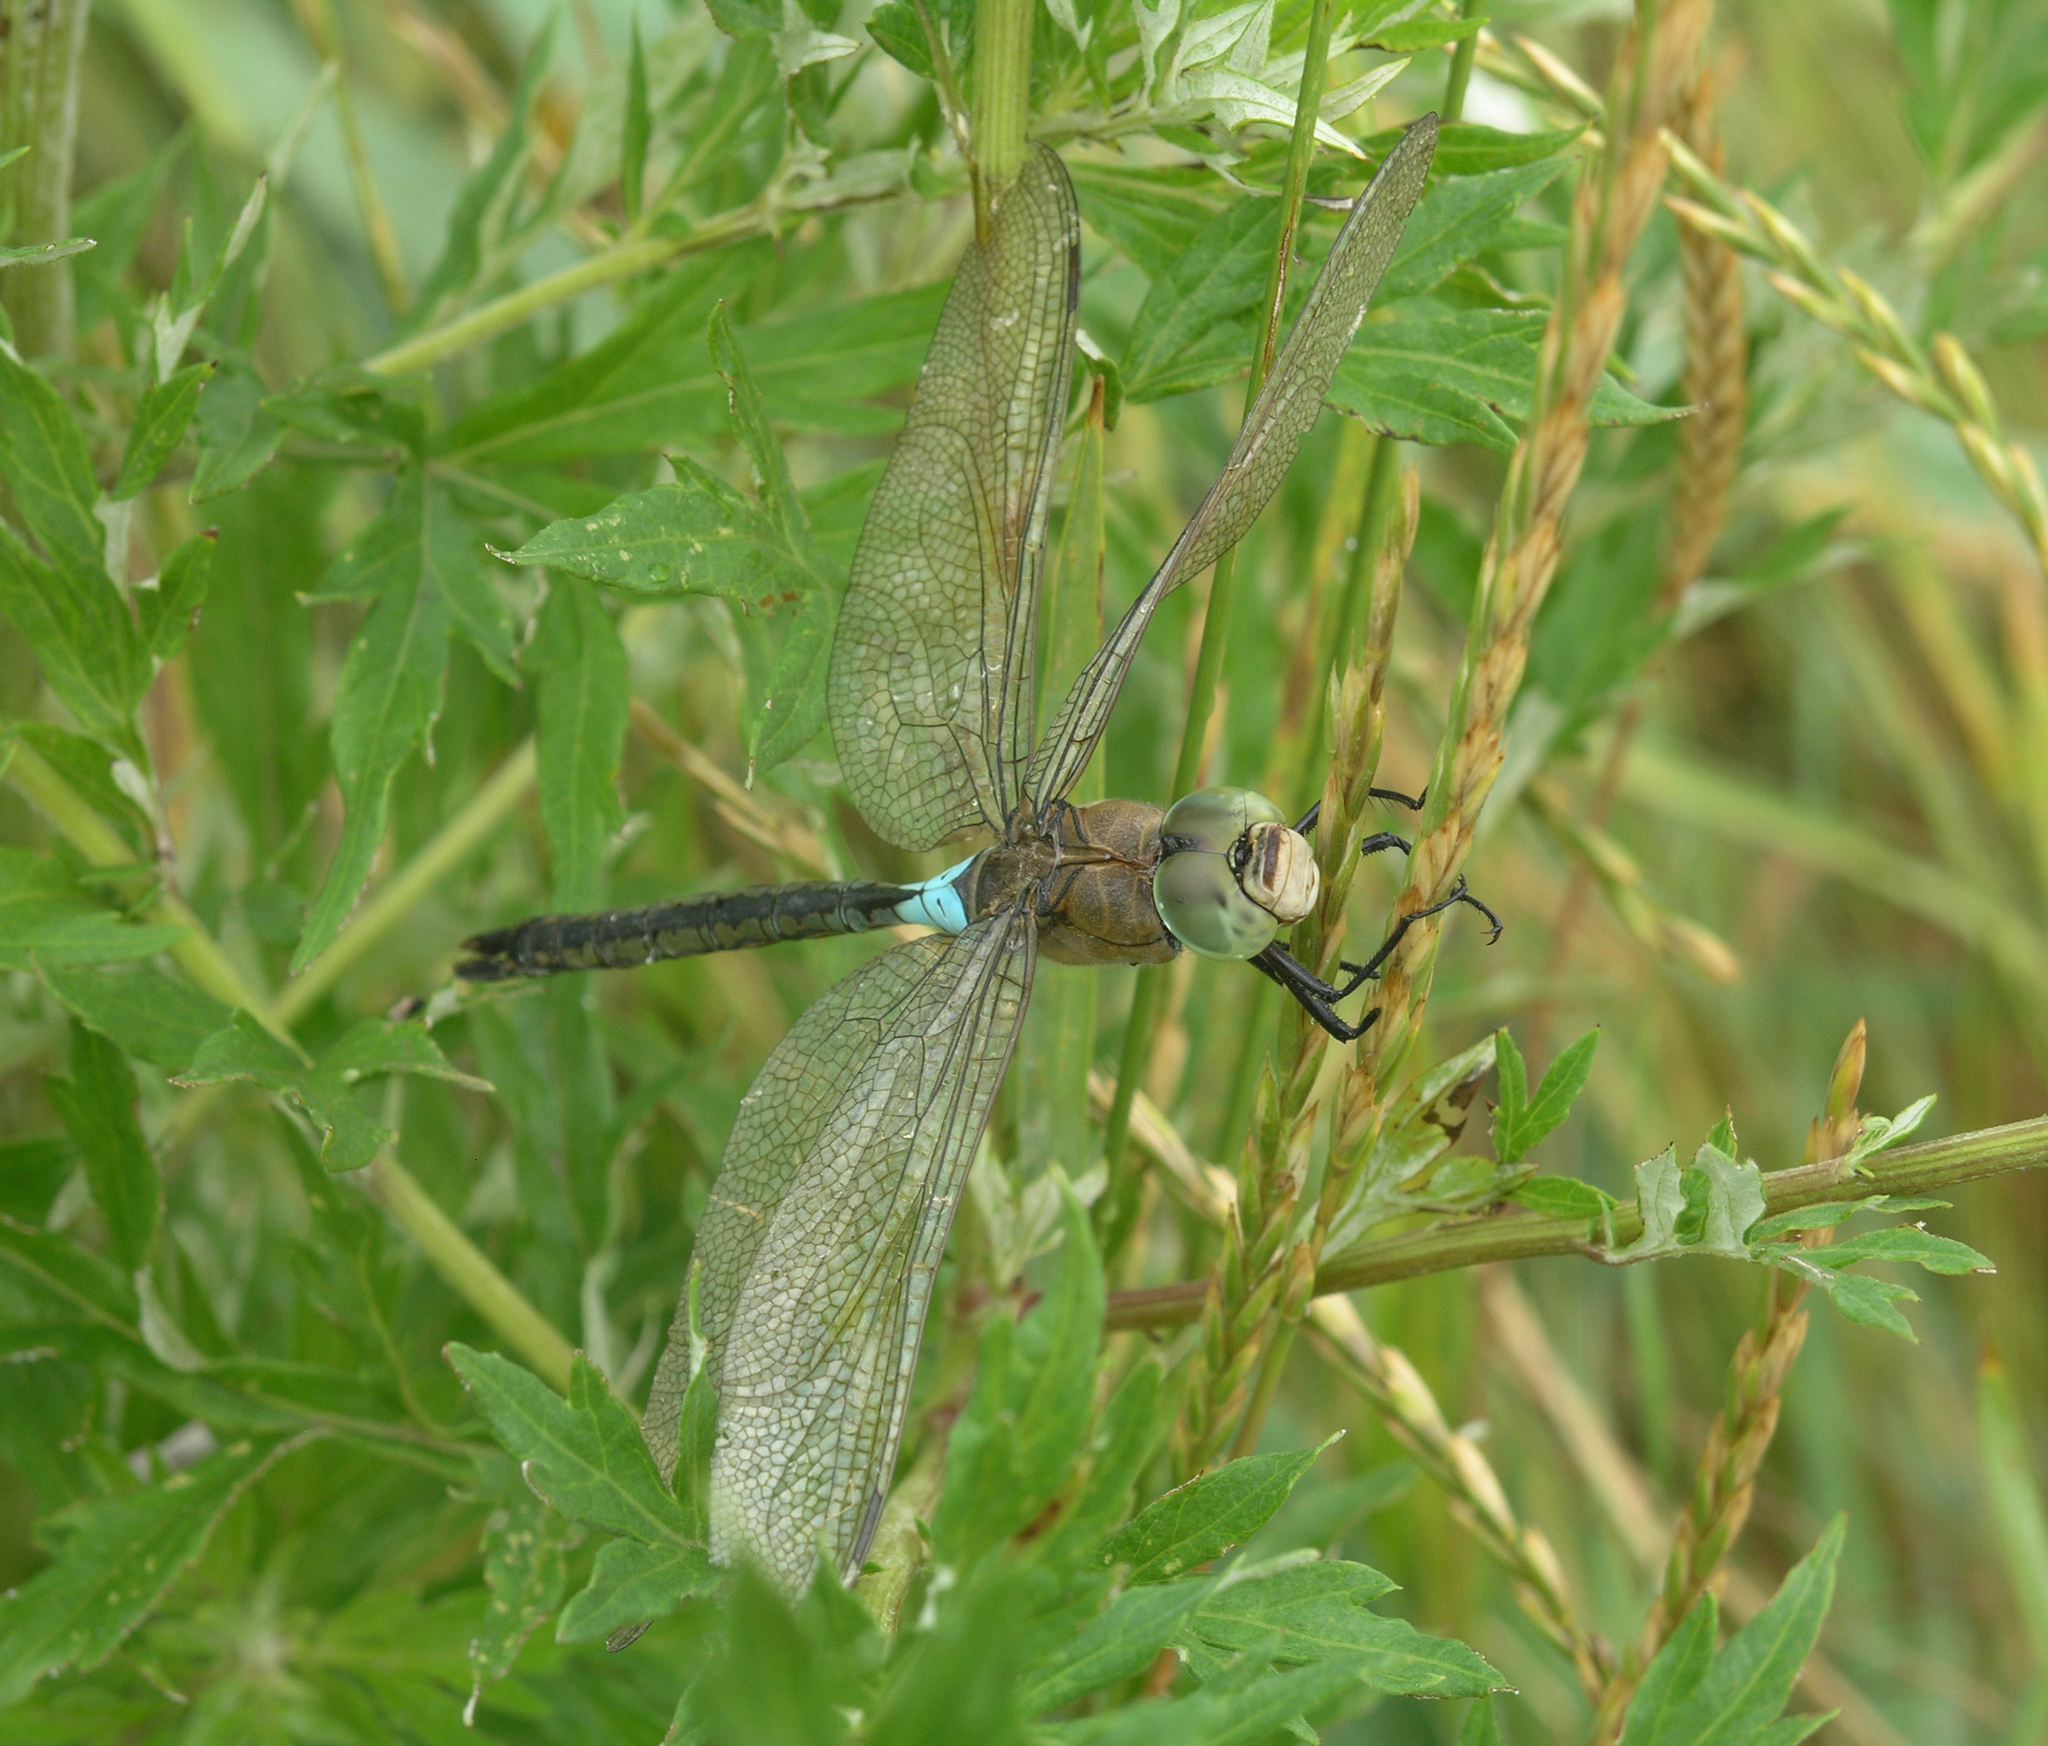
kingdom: Animalia
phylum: Arthropoda
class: Insecta
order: Odonata
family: Aeshnidae
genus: Anax
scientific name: Anax parthenope
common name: Lesser emperor
